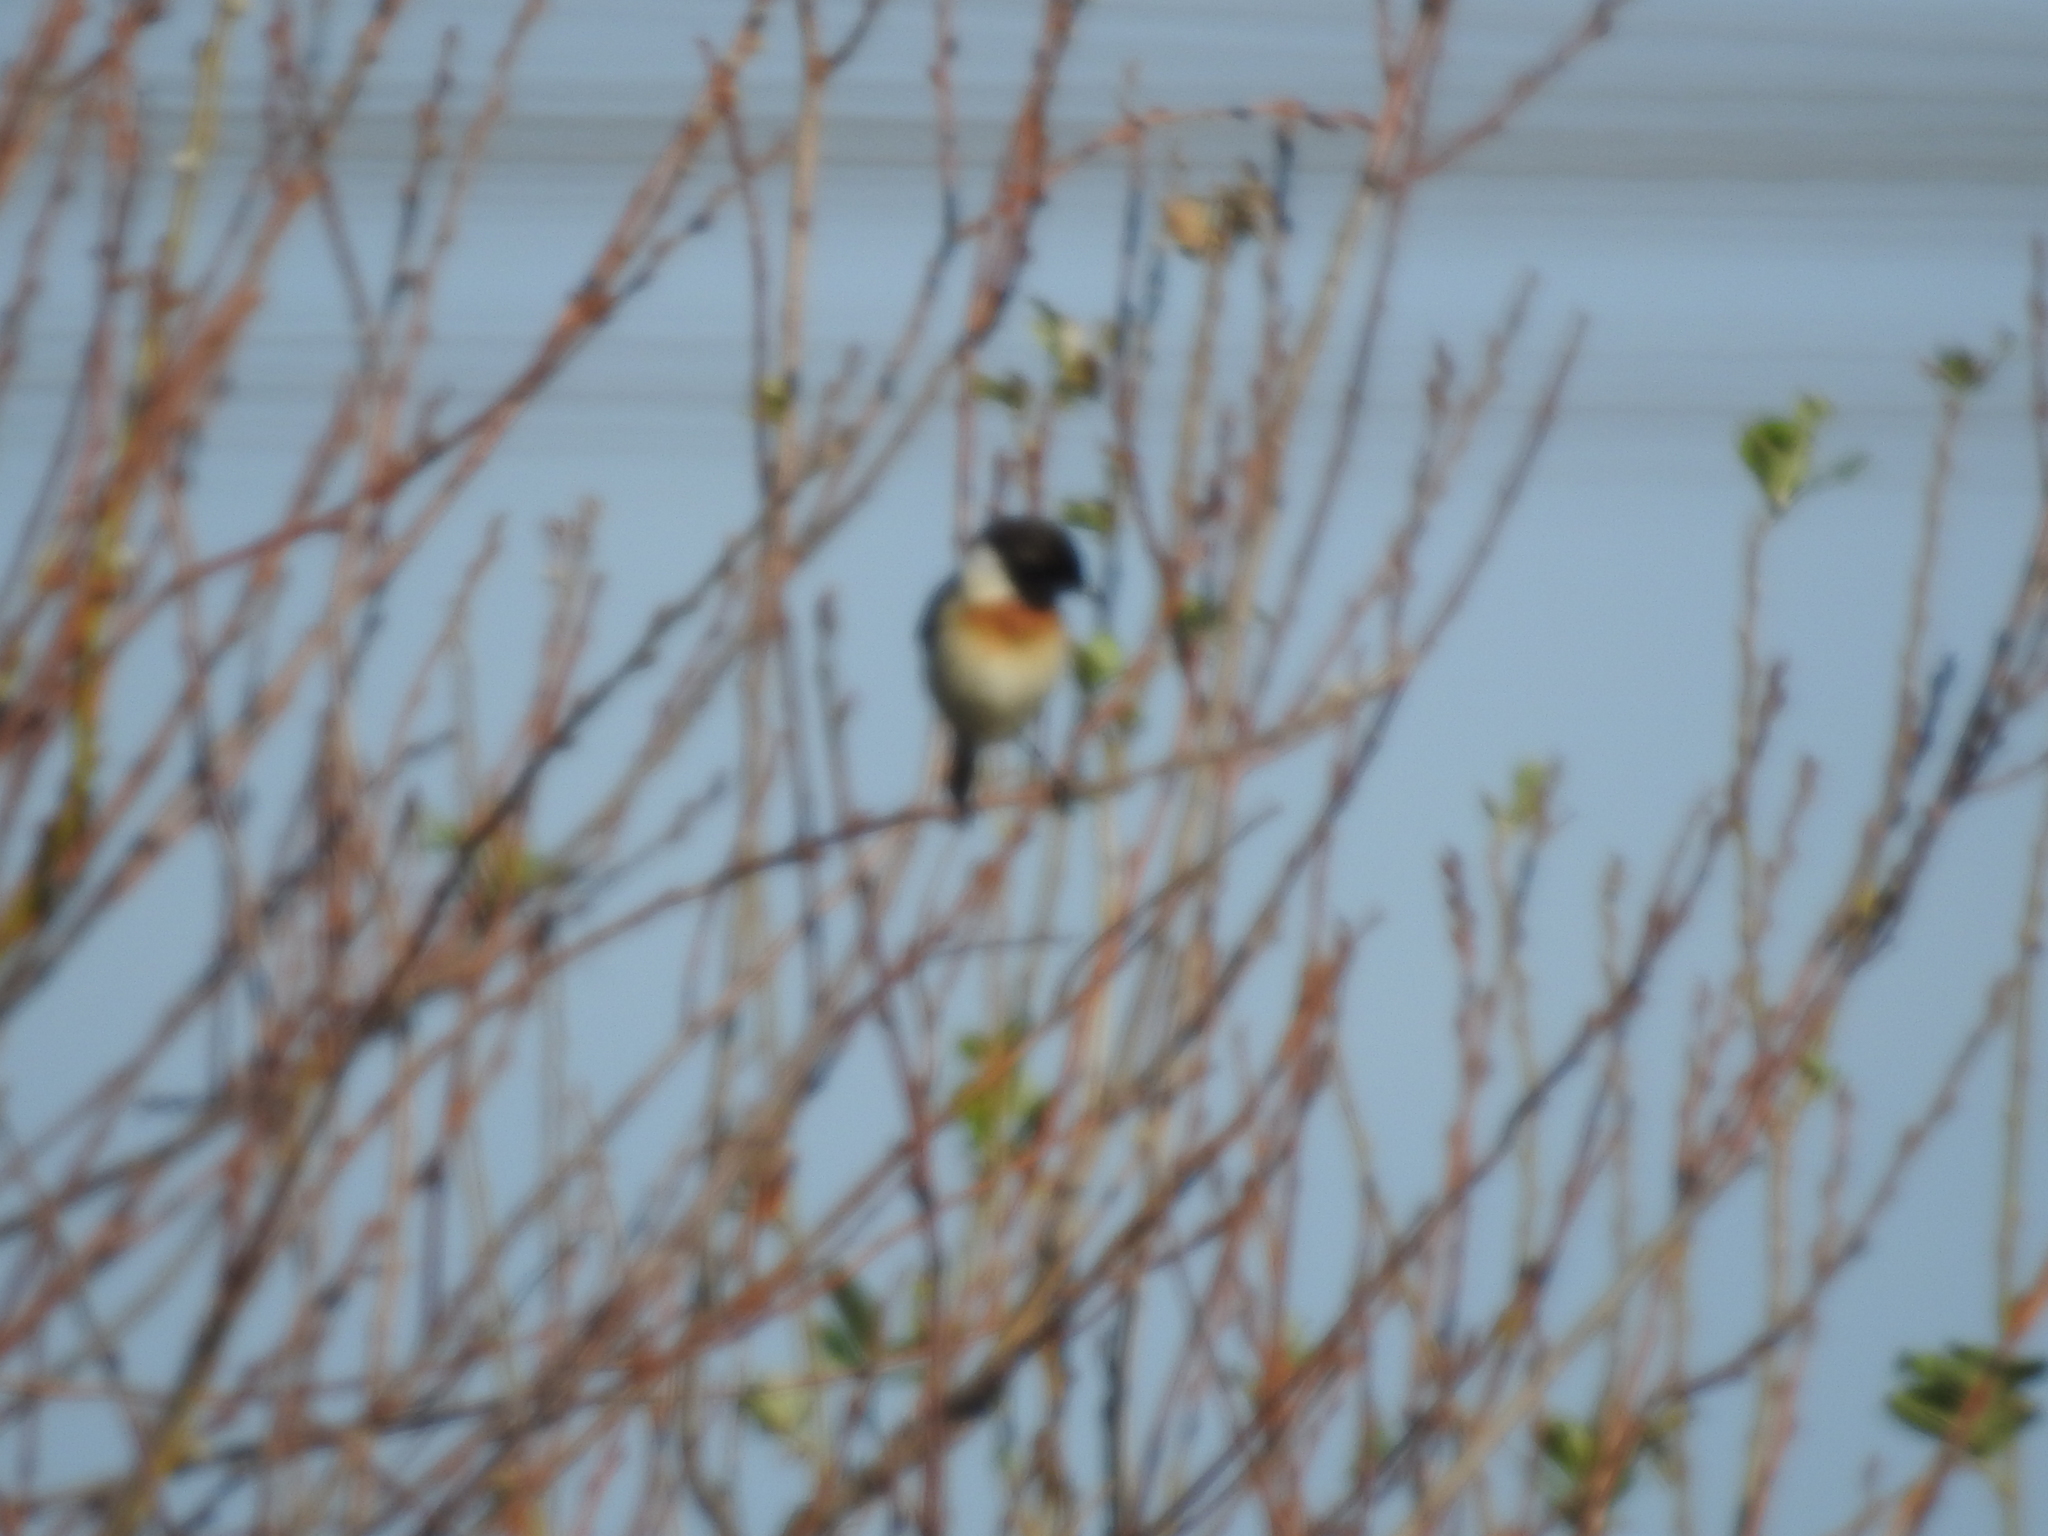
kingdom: Animalia
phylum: Chordata
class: Aves
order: Passeriformes
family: Muscicapidae
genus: Saxicola
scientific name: Saxicola maurus
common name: Siberian stonechat
